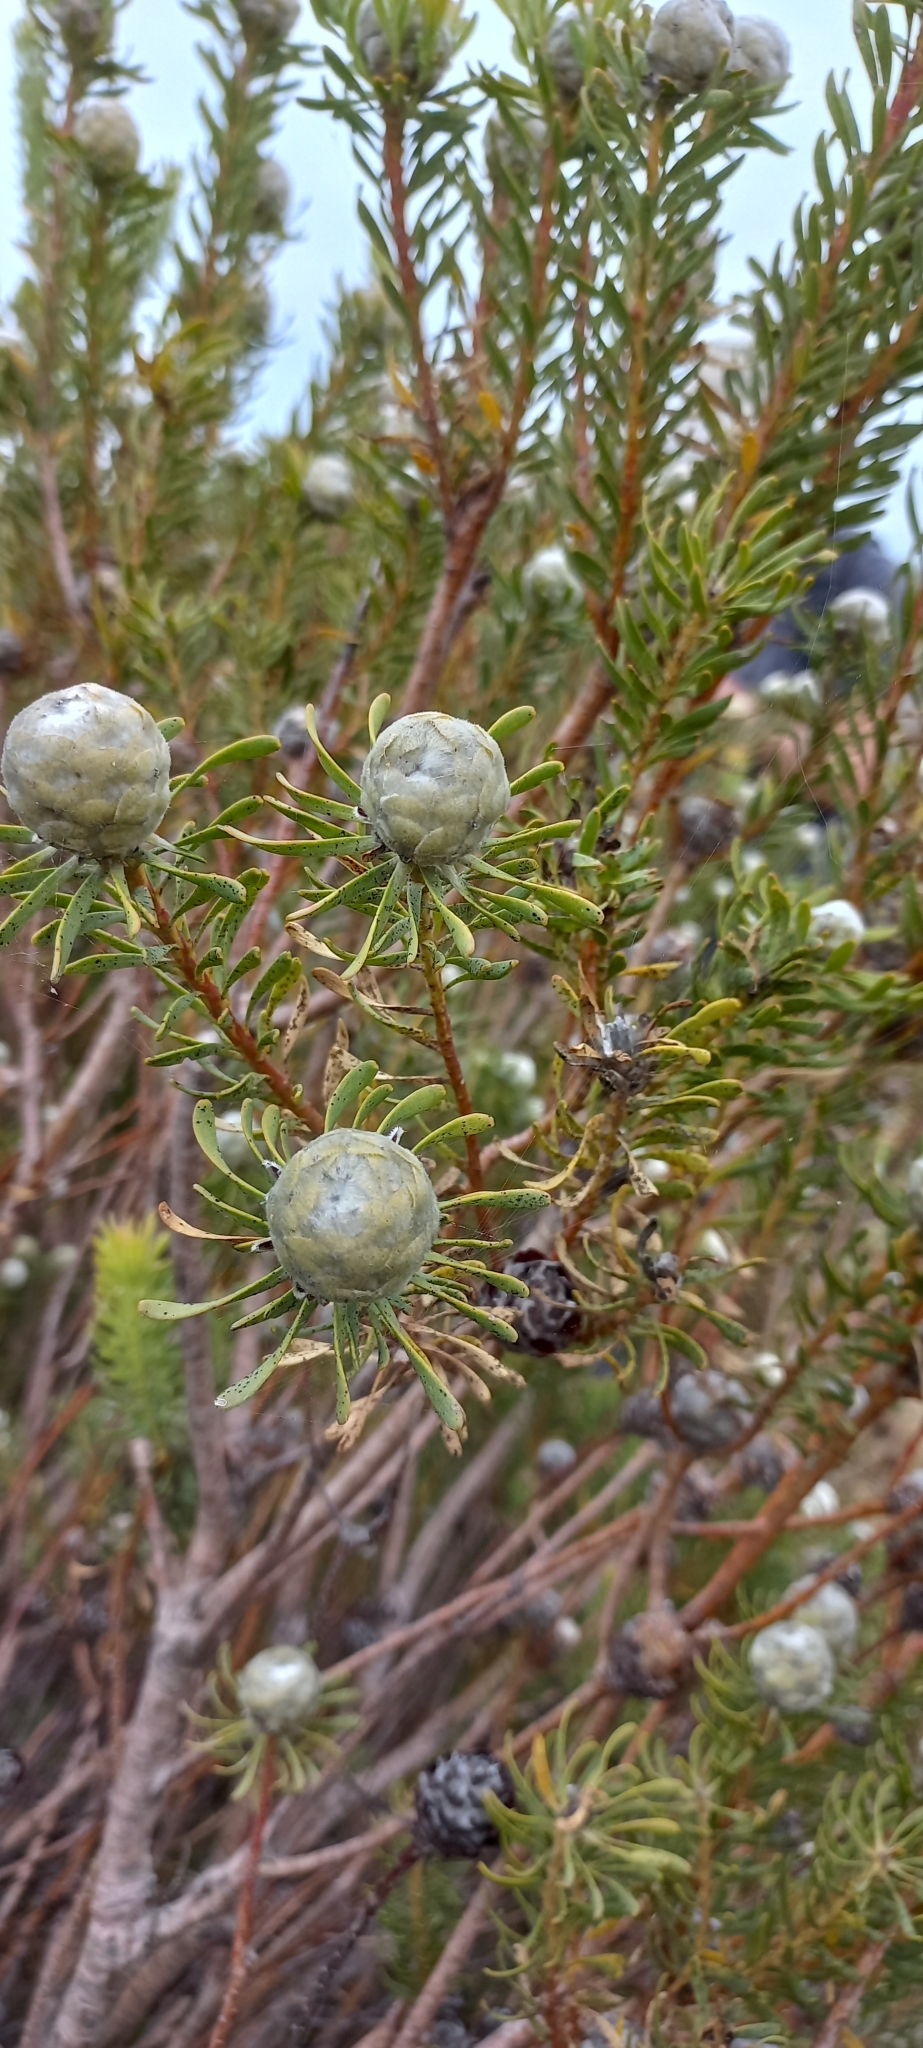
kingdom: Plantae
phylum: Tracheophyta
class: Magnoliopsida
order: Proteales
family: Proteaceae
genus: Leucadendron
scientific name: Leucadendron linifolium
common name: Line-leaf conebush
